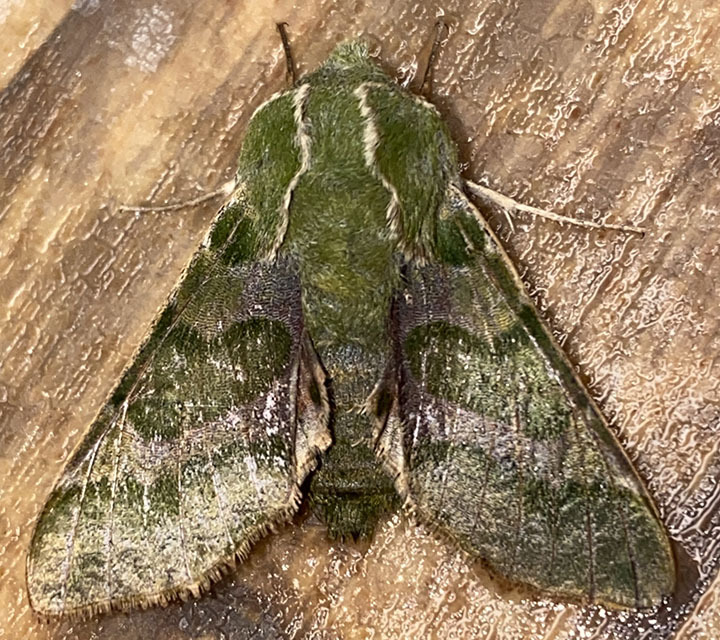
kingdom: Animalia
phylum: Arthropoda
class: Insecta
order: Lepidoptera
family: Sphingidae
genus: Proserpinus
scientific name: Proserpinus lucidus
